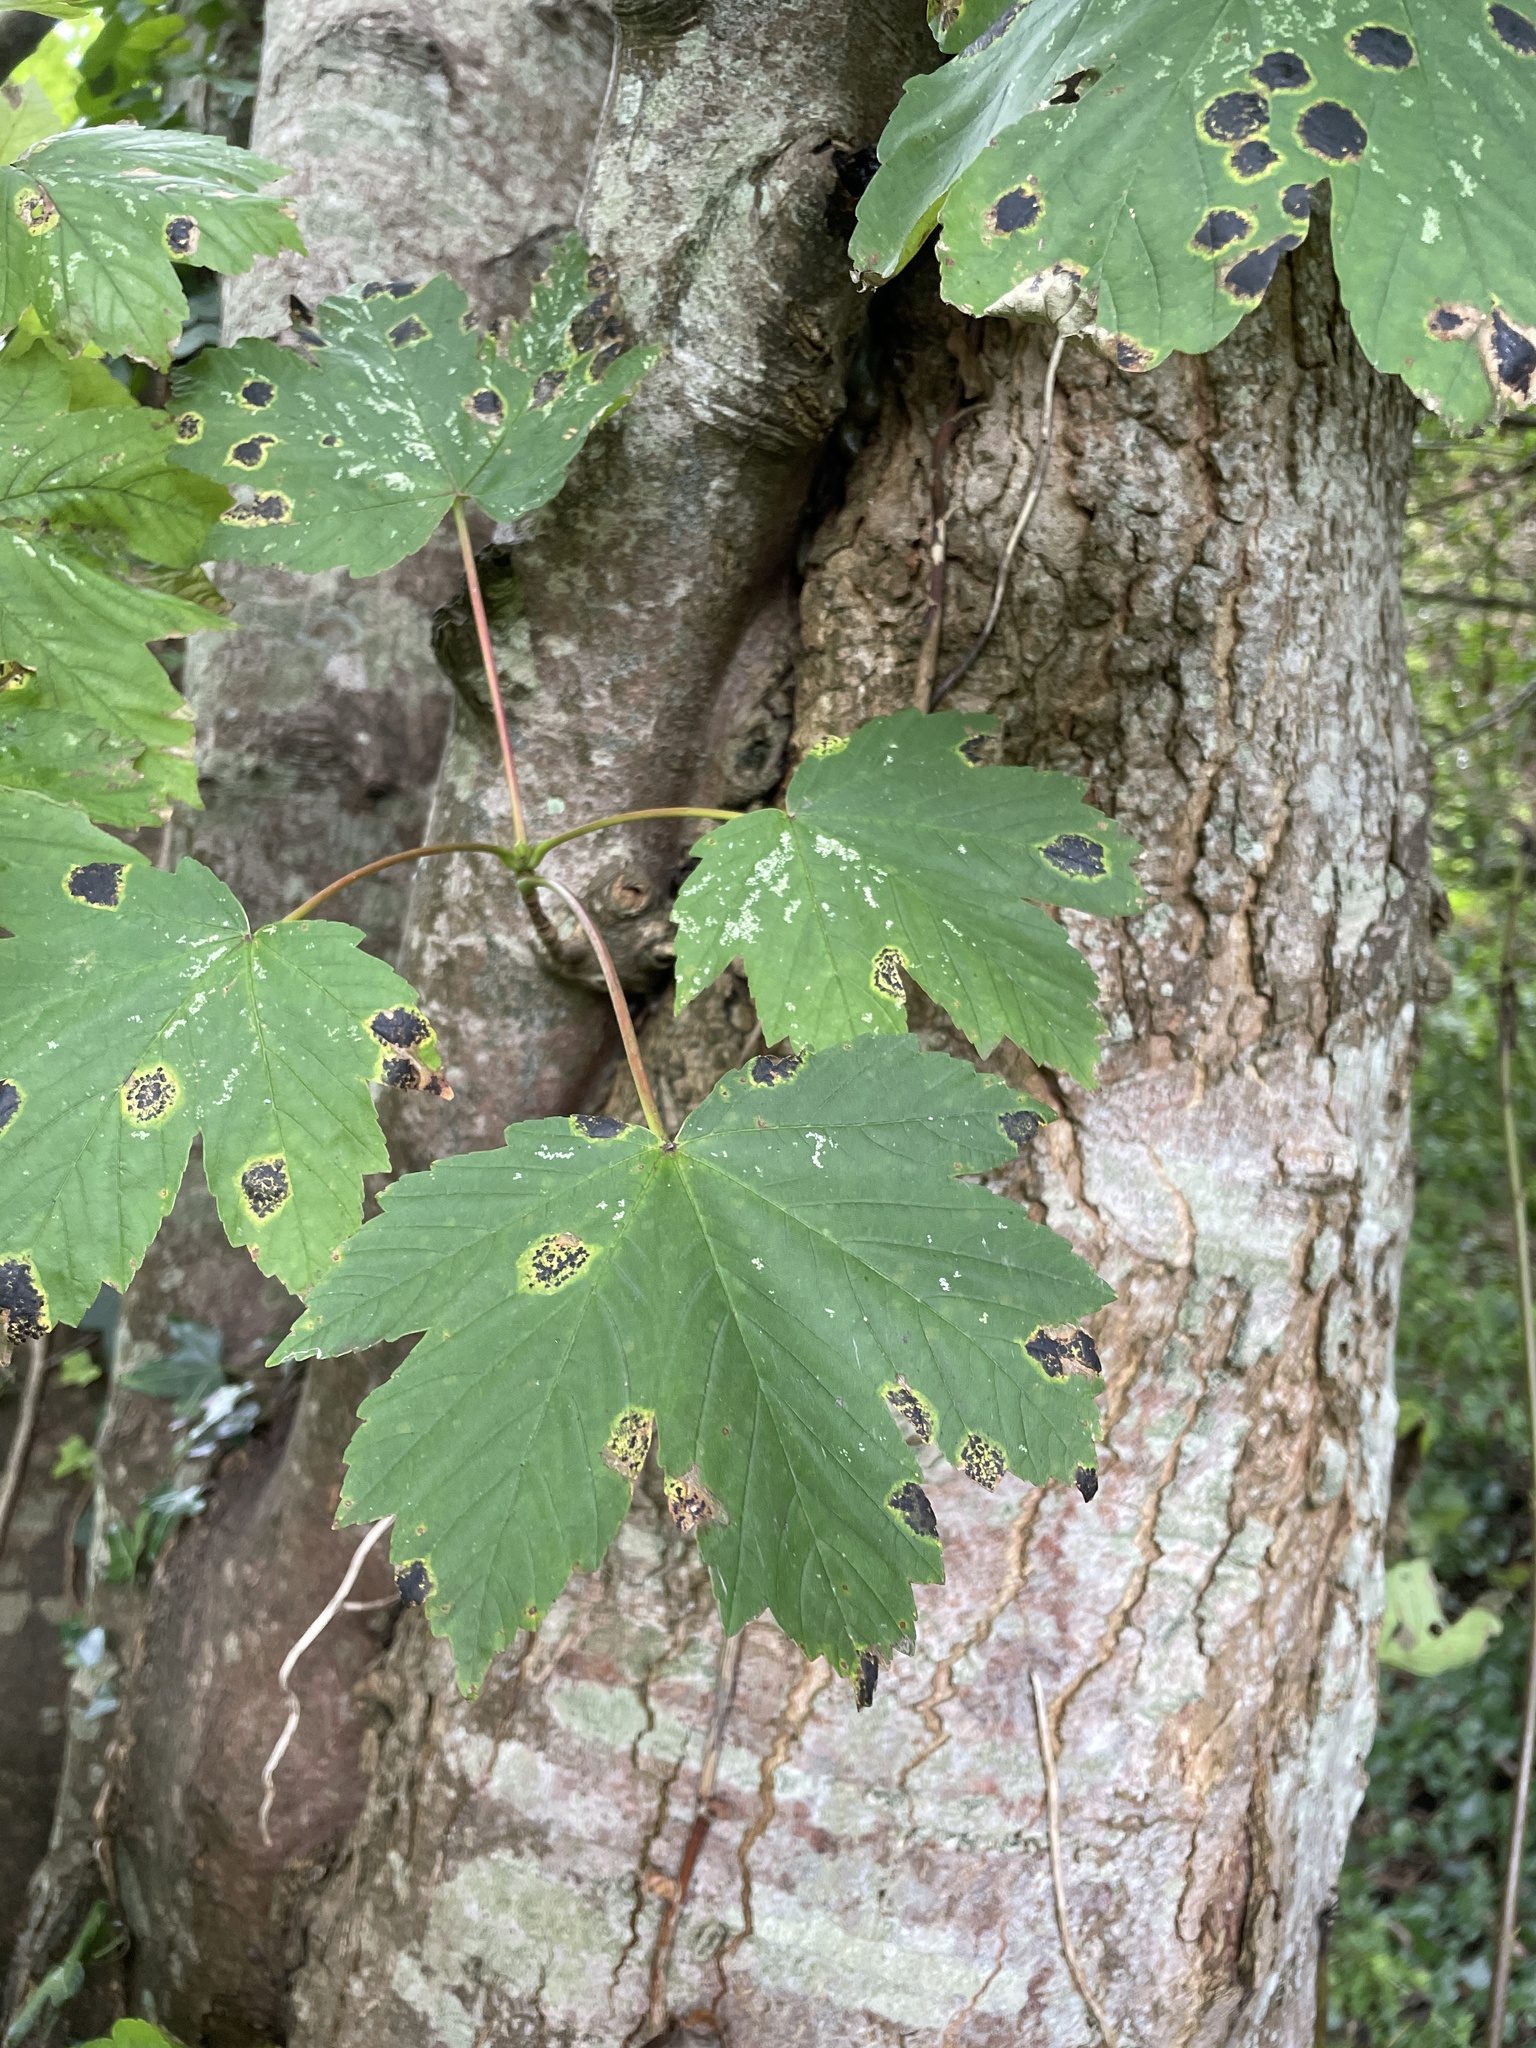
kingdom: Plantae
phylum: Tracheophyta
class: Magnoliopsida
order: Sapindales
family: Sapindaceae
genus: Acer
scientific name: Acer pseudoplatanus
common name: Sycamore
